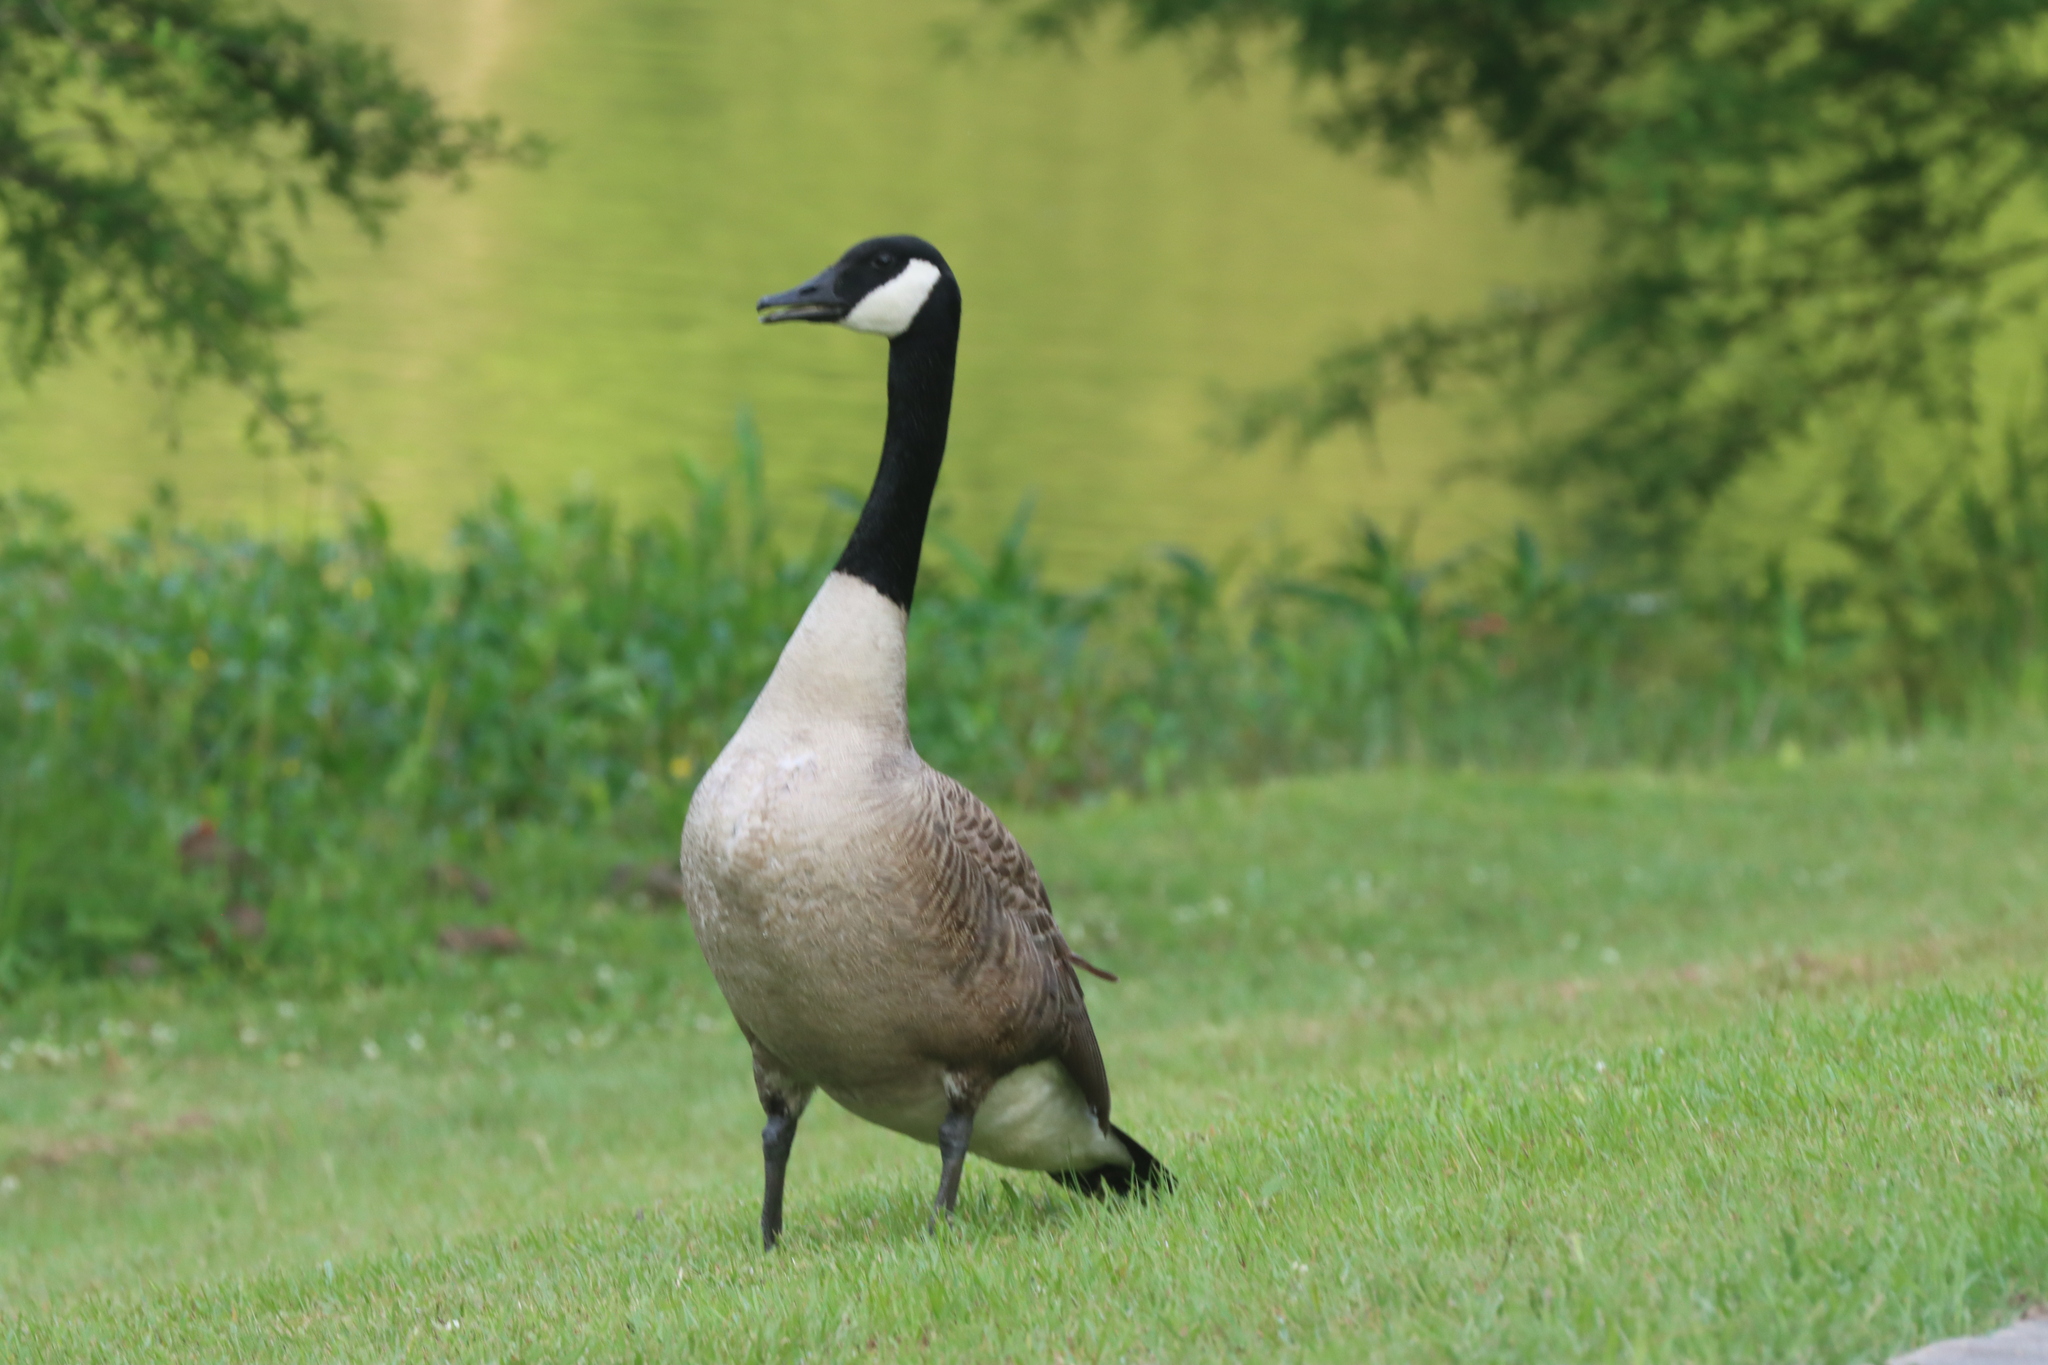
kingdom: Animalia
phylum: Chordata
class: Aves
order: Anseriformes
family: Anatidae
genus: Branta
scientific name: Branta canadensis
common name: Canada goose
